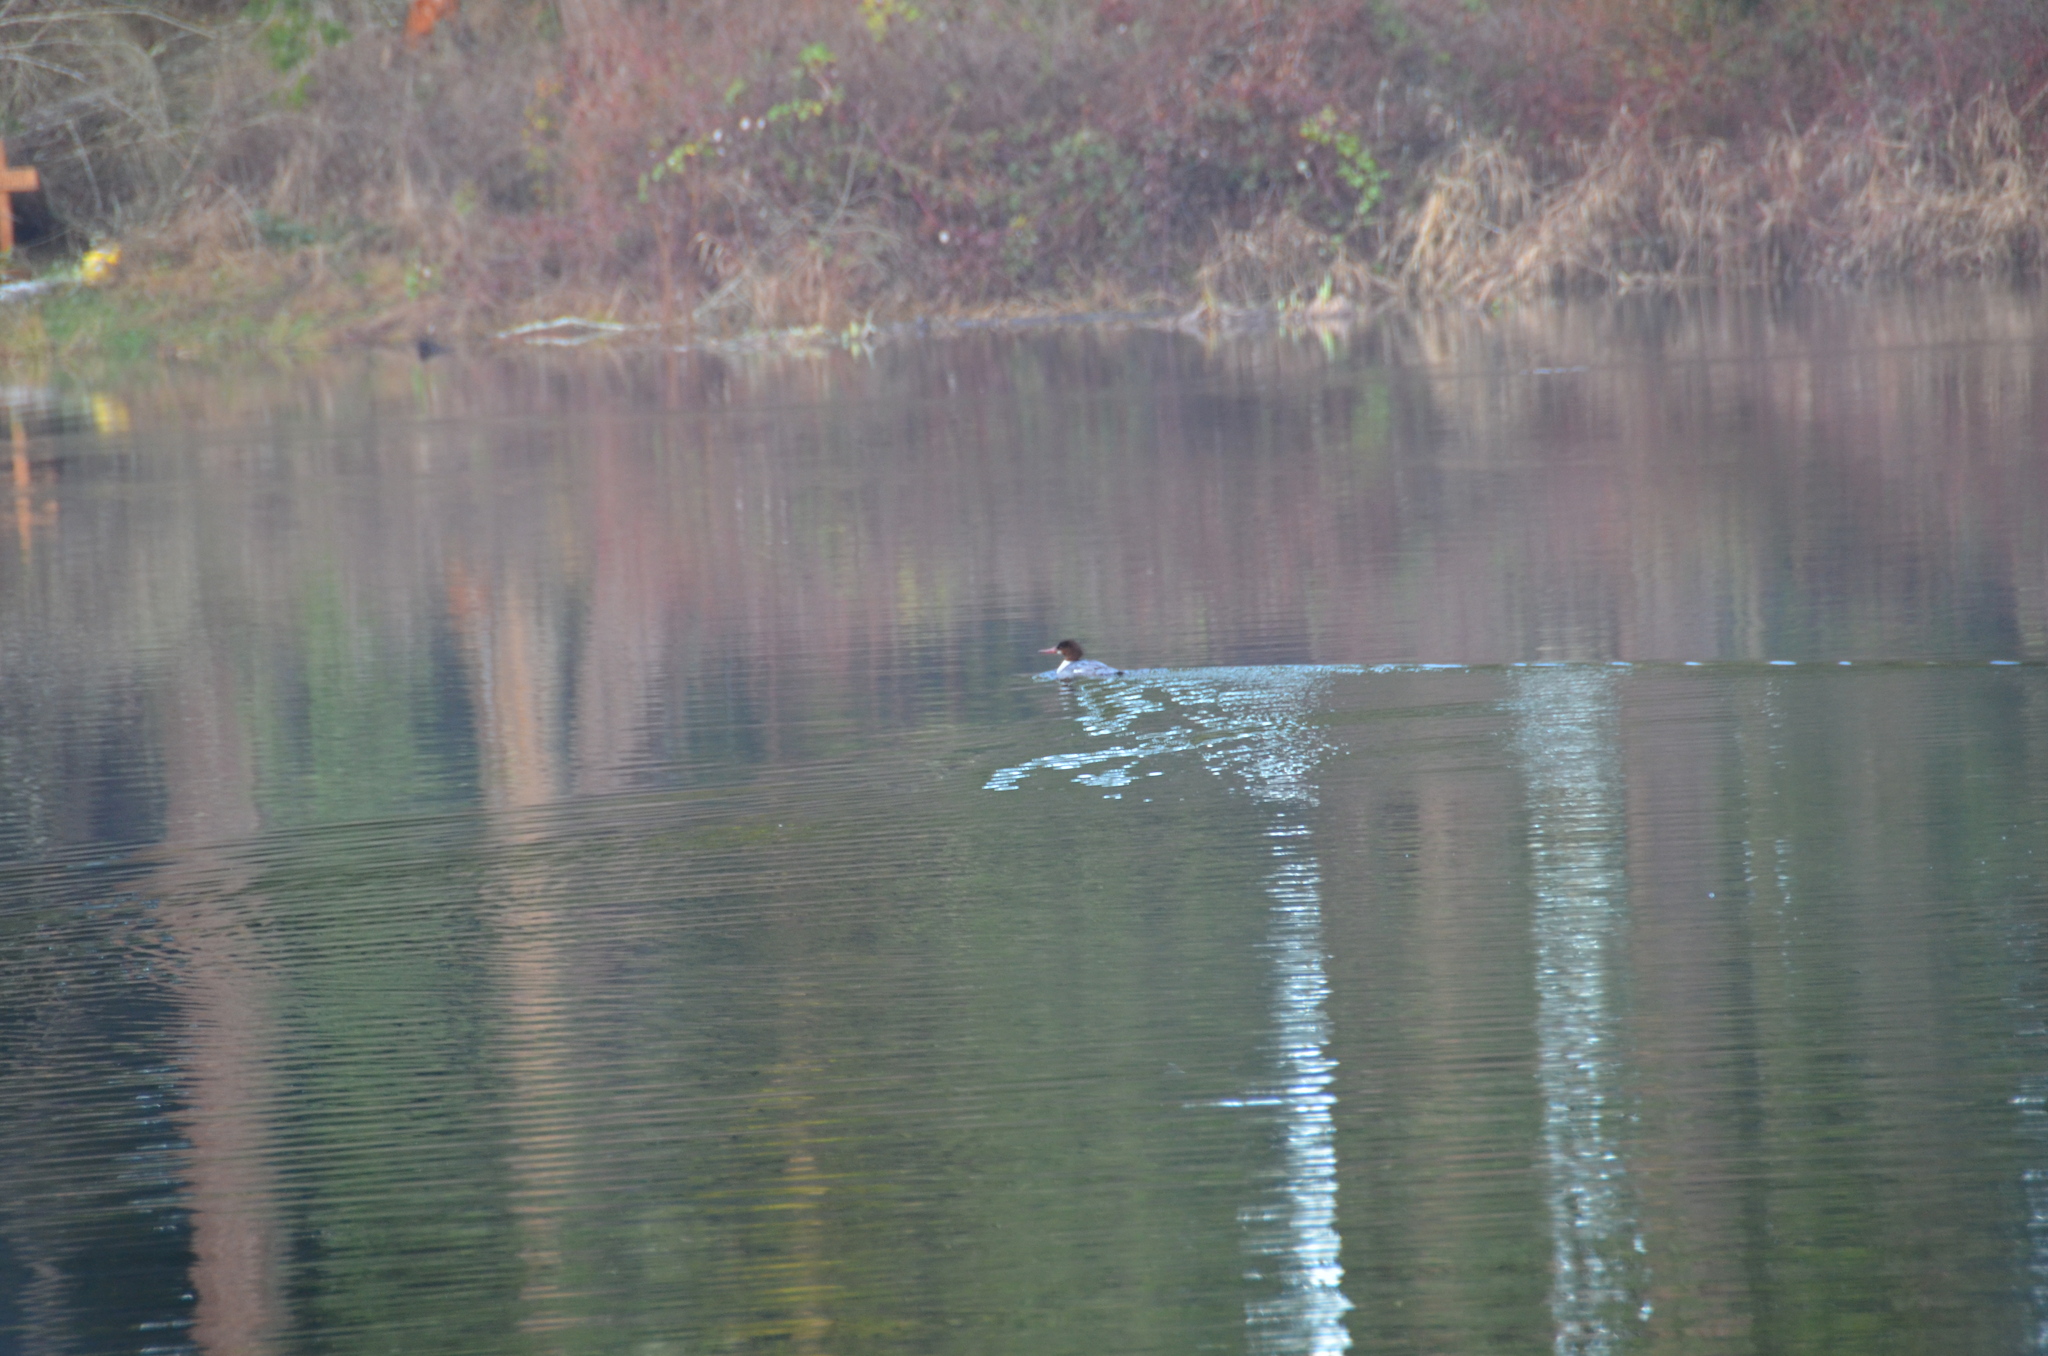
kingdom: Animalia
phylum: Chordata
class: Aves
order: Anseriformes
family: Anatidae
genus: Mergus
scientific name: Mergus merganser
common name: Common merganser
